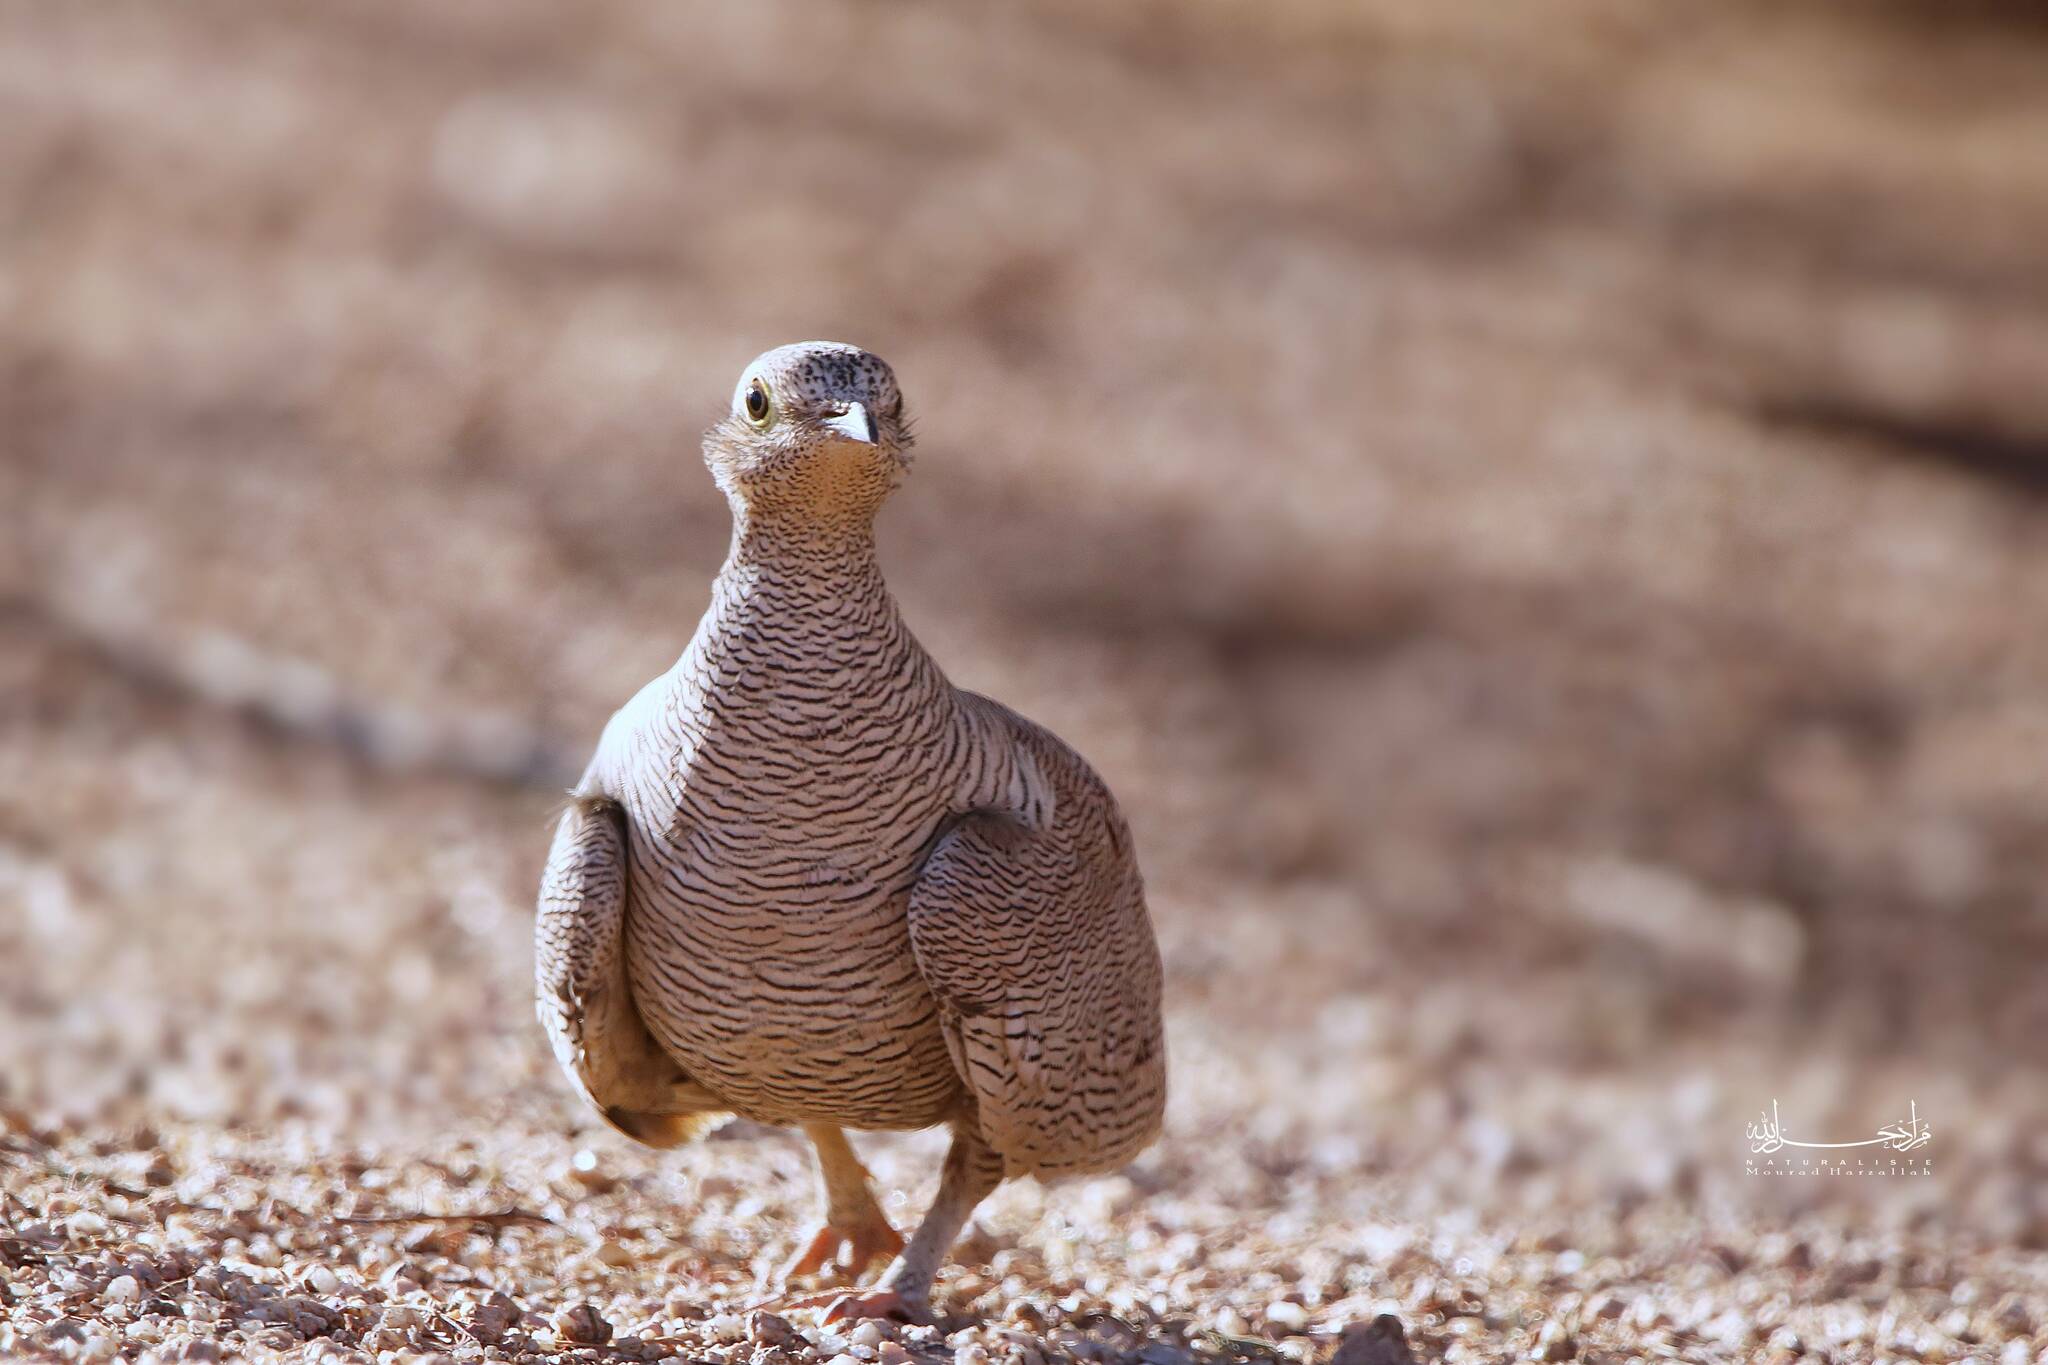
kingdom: Animalia
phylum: Chordata
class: Aves
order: Pteroclidiformes
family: Pteroclididae
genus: Pterocles
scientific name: Pterocles lichtensteinii
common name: Lichtenstein's sandgrouse
